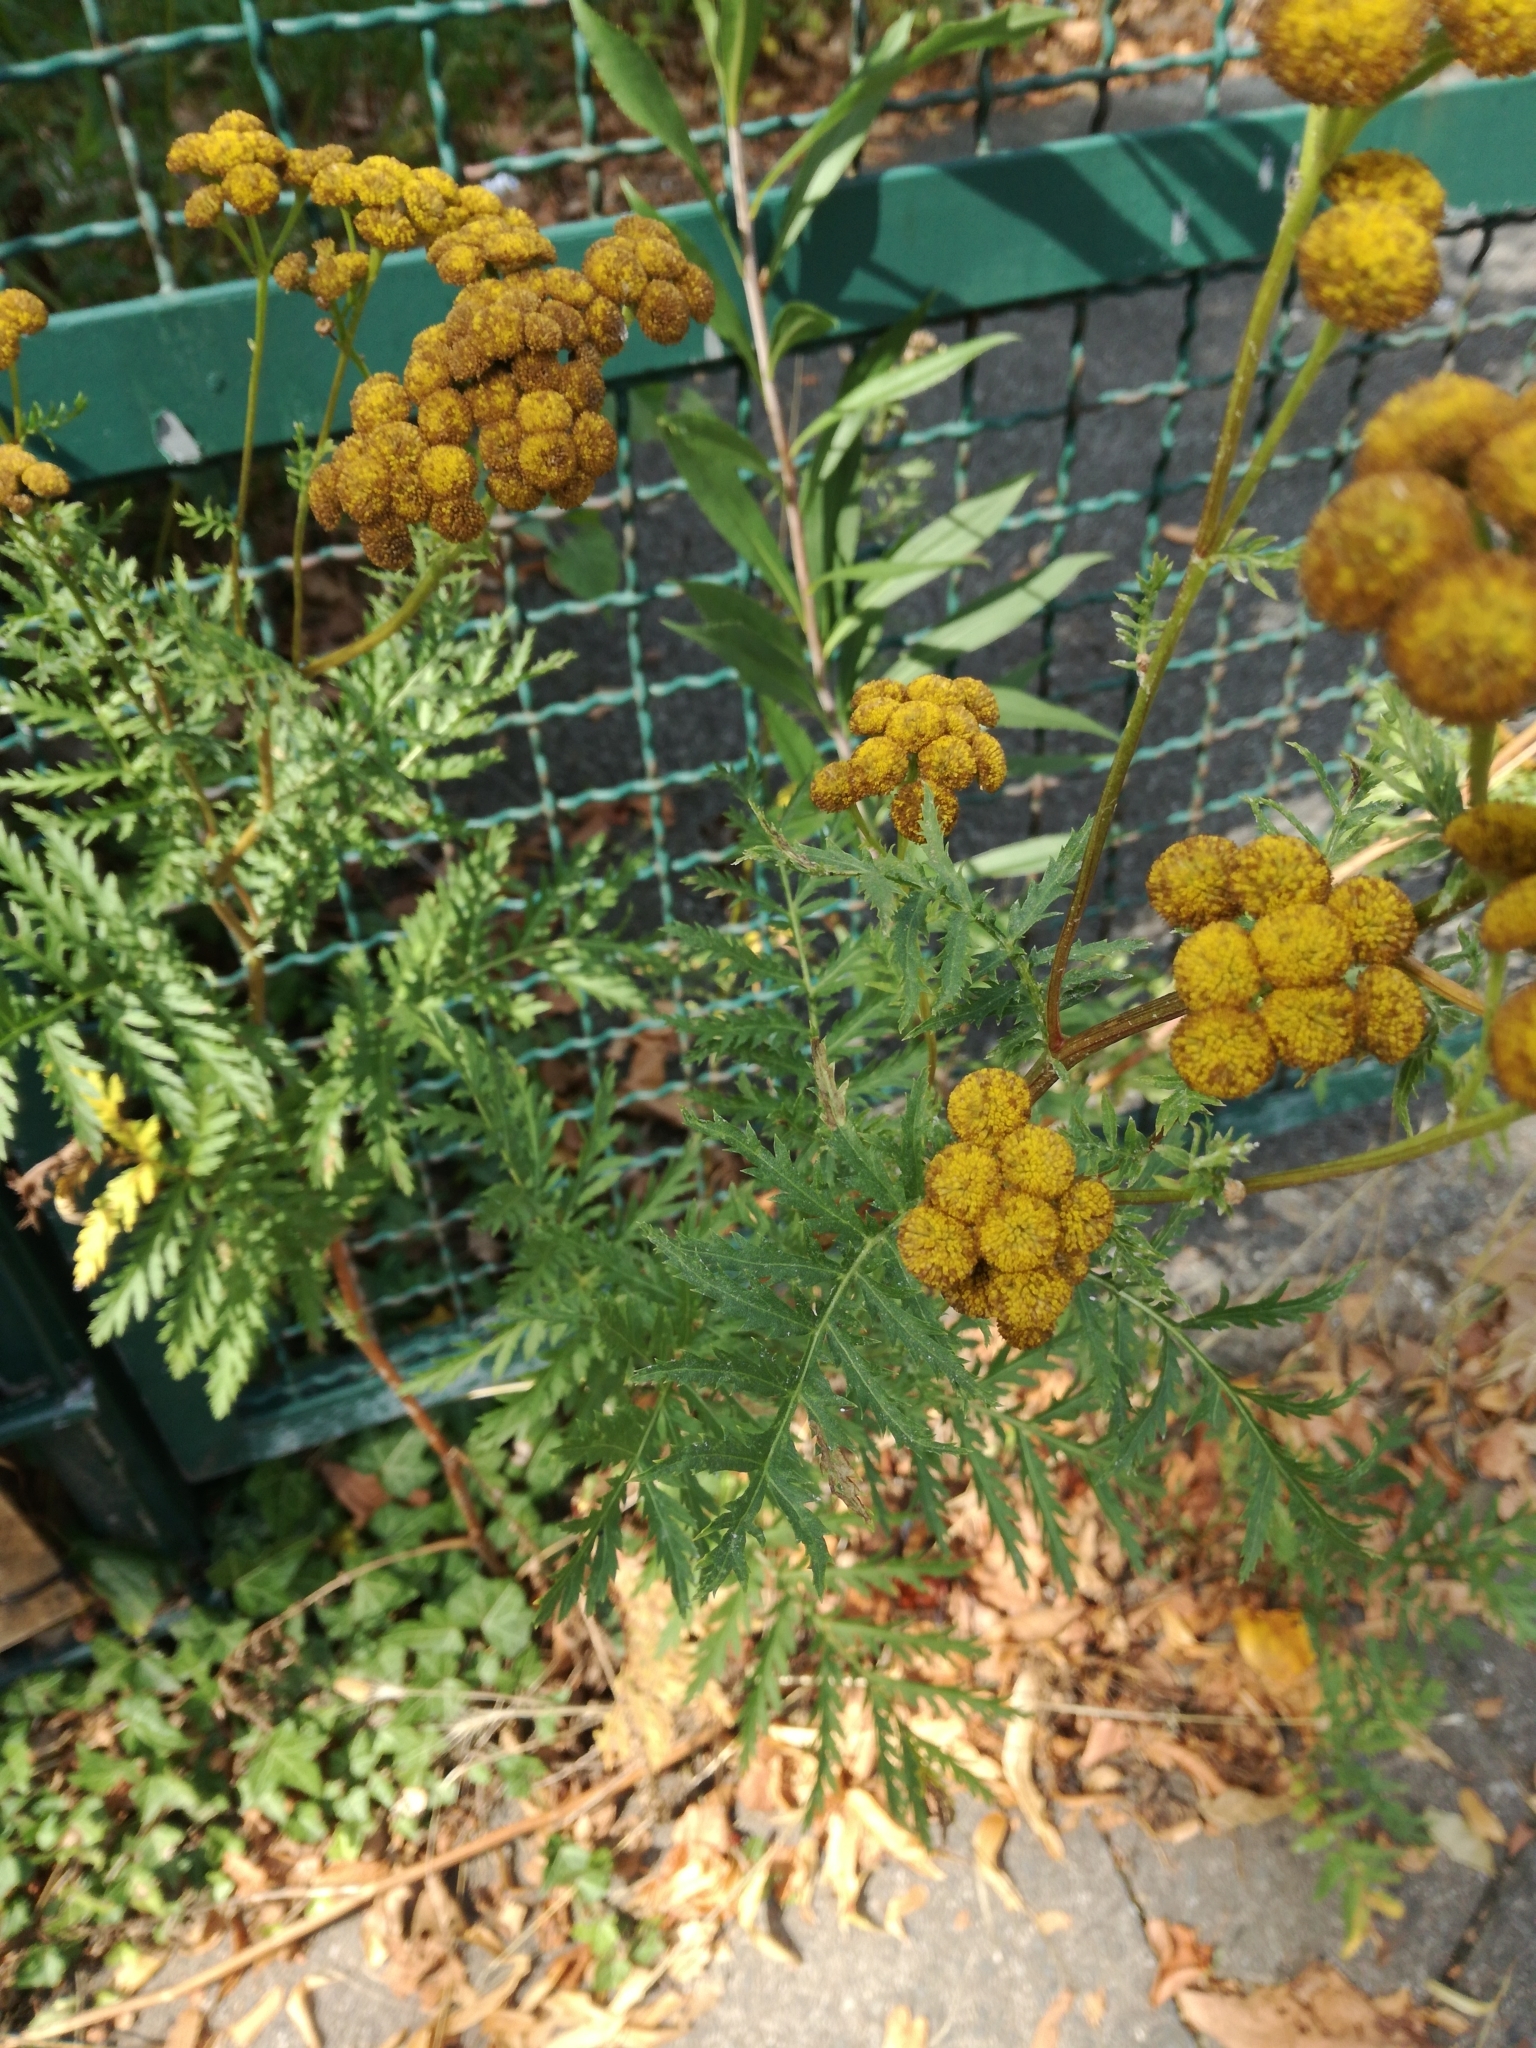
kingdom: Plantae
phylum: Tracheophyta
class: Magnoliopsida
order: Asterales
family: Asteraceae
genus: Tanacetum
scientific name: Tanacetum vulgare
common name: Common tansy
